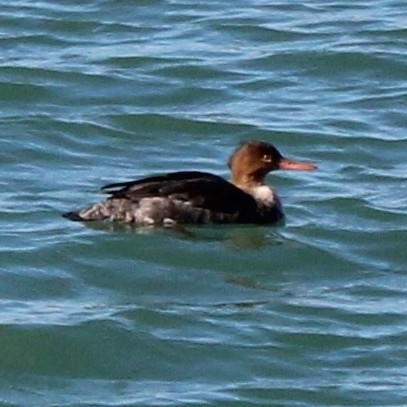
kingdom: Animalia
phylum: Chordata
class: Aves
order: Anseriformes
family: Anatidae
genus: Mergus
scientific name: Mergus serrator
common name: Red-breasted merganser
